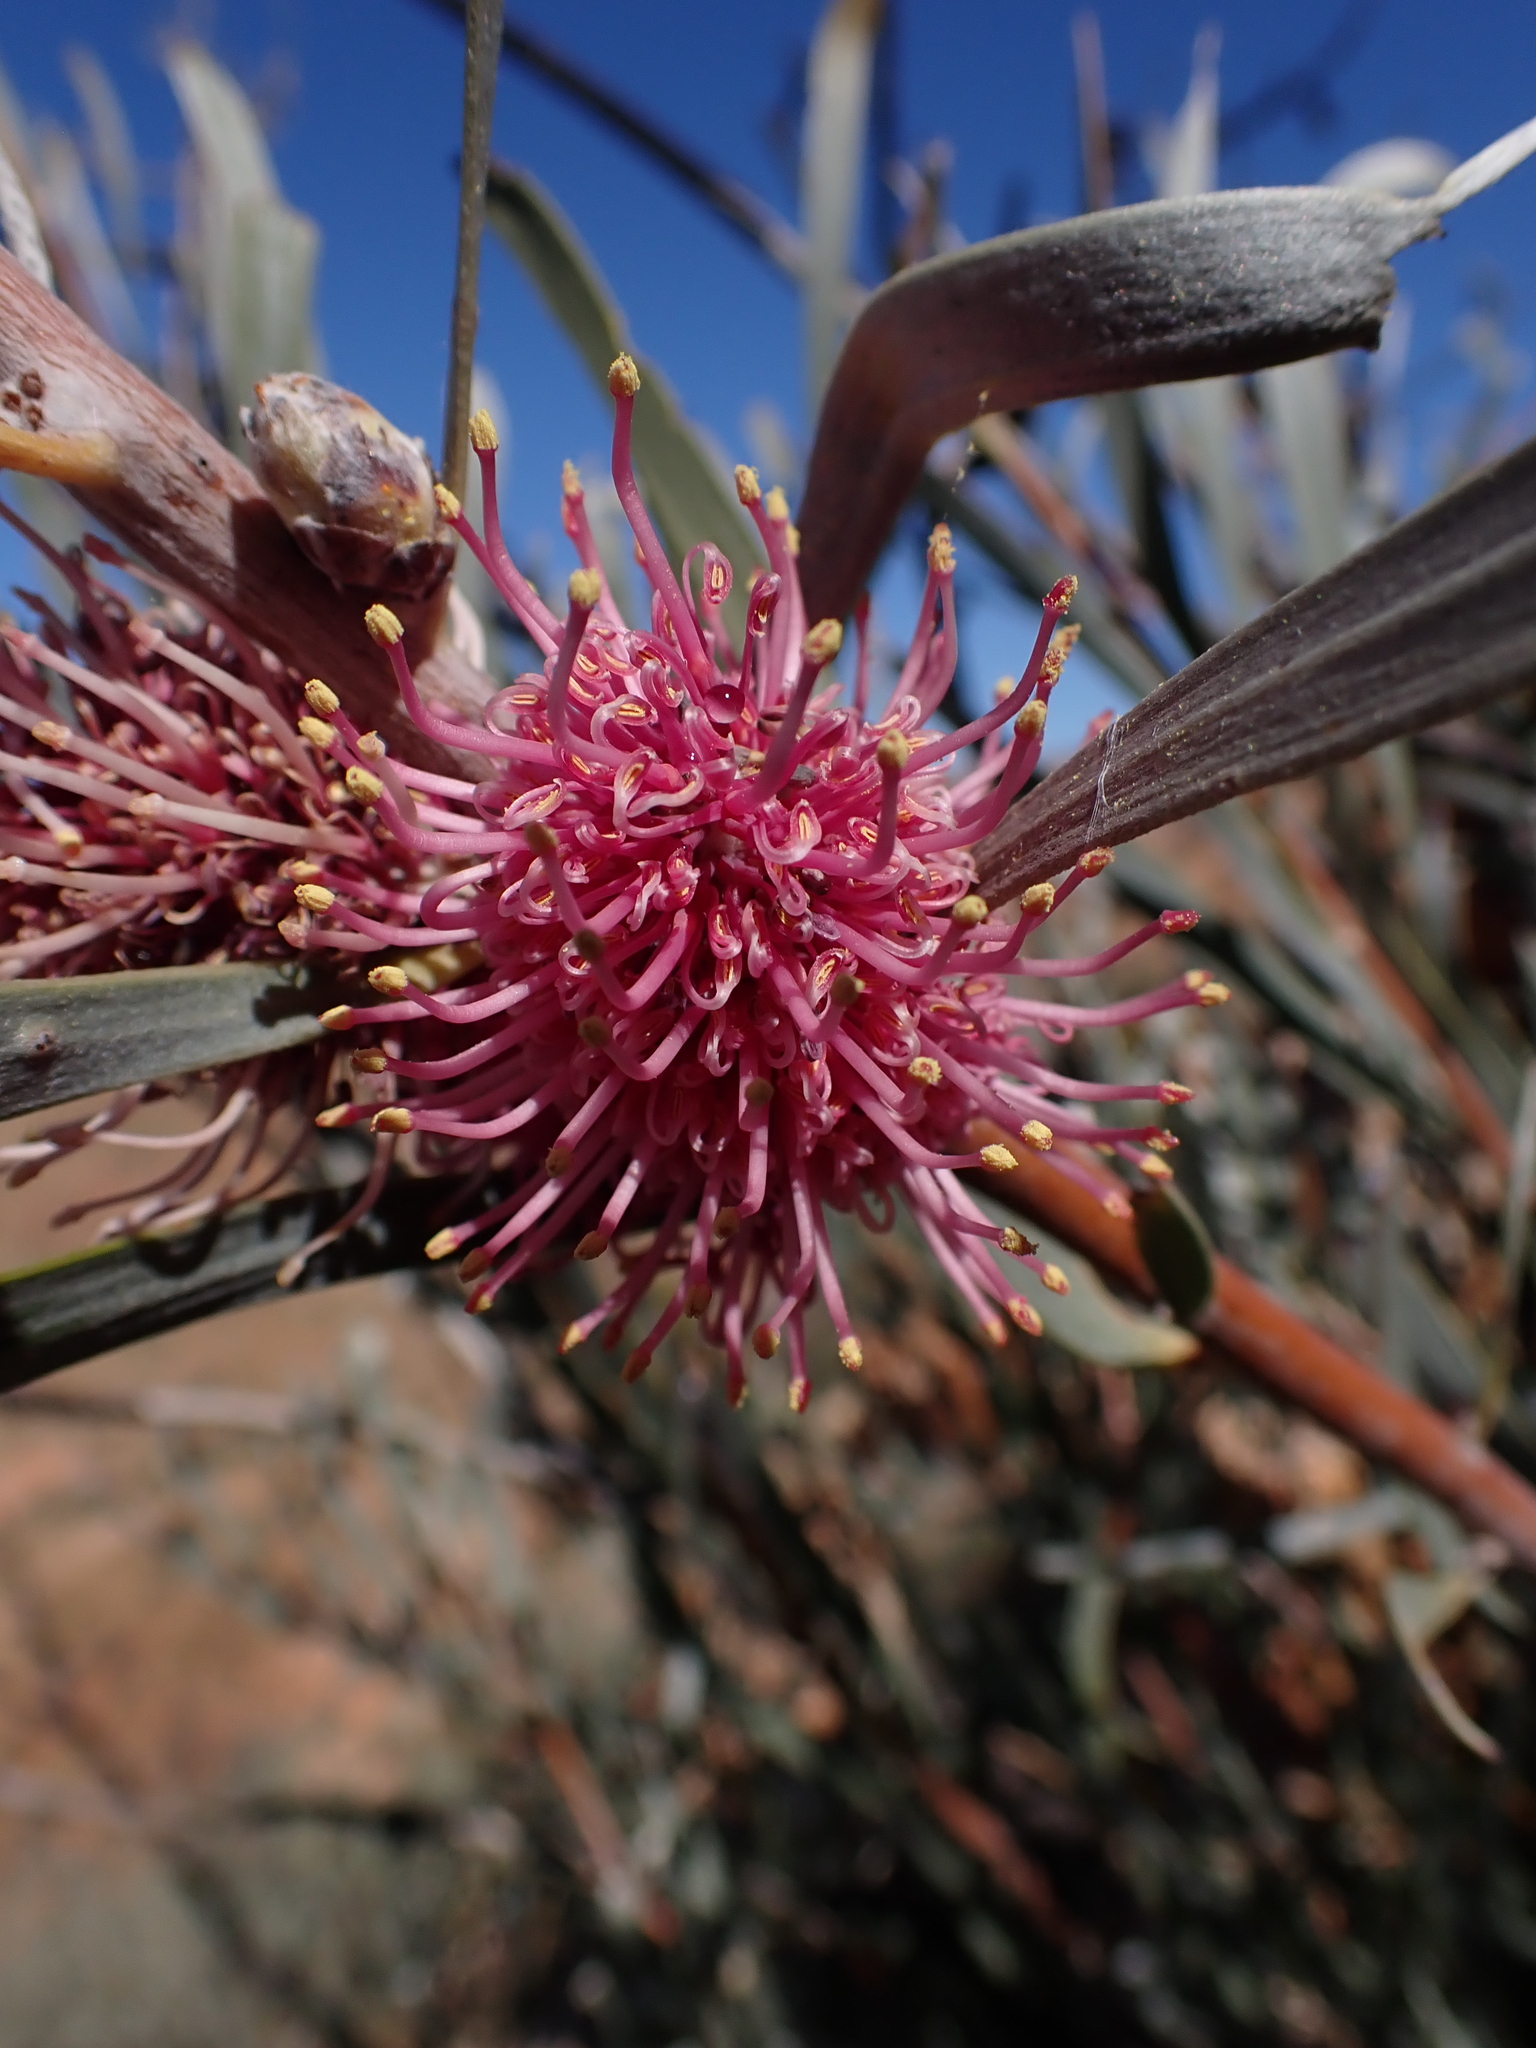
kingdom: Plantae
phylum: Tracheophyta
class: Magnoliopsida
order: Proteales
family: Proteaceae
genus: Hakea
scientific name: Hakea grammatophylla
